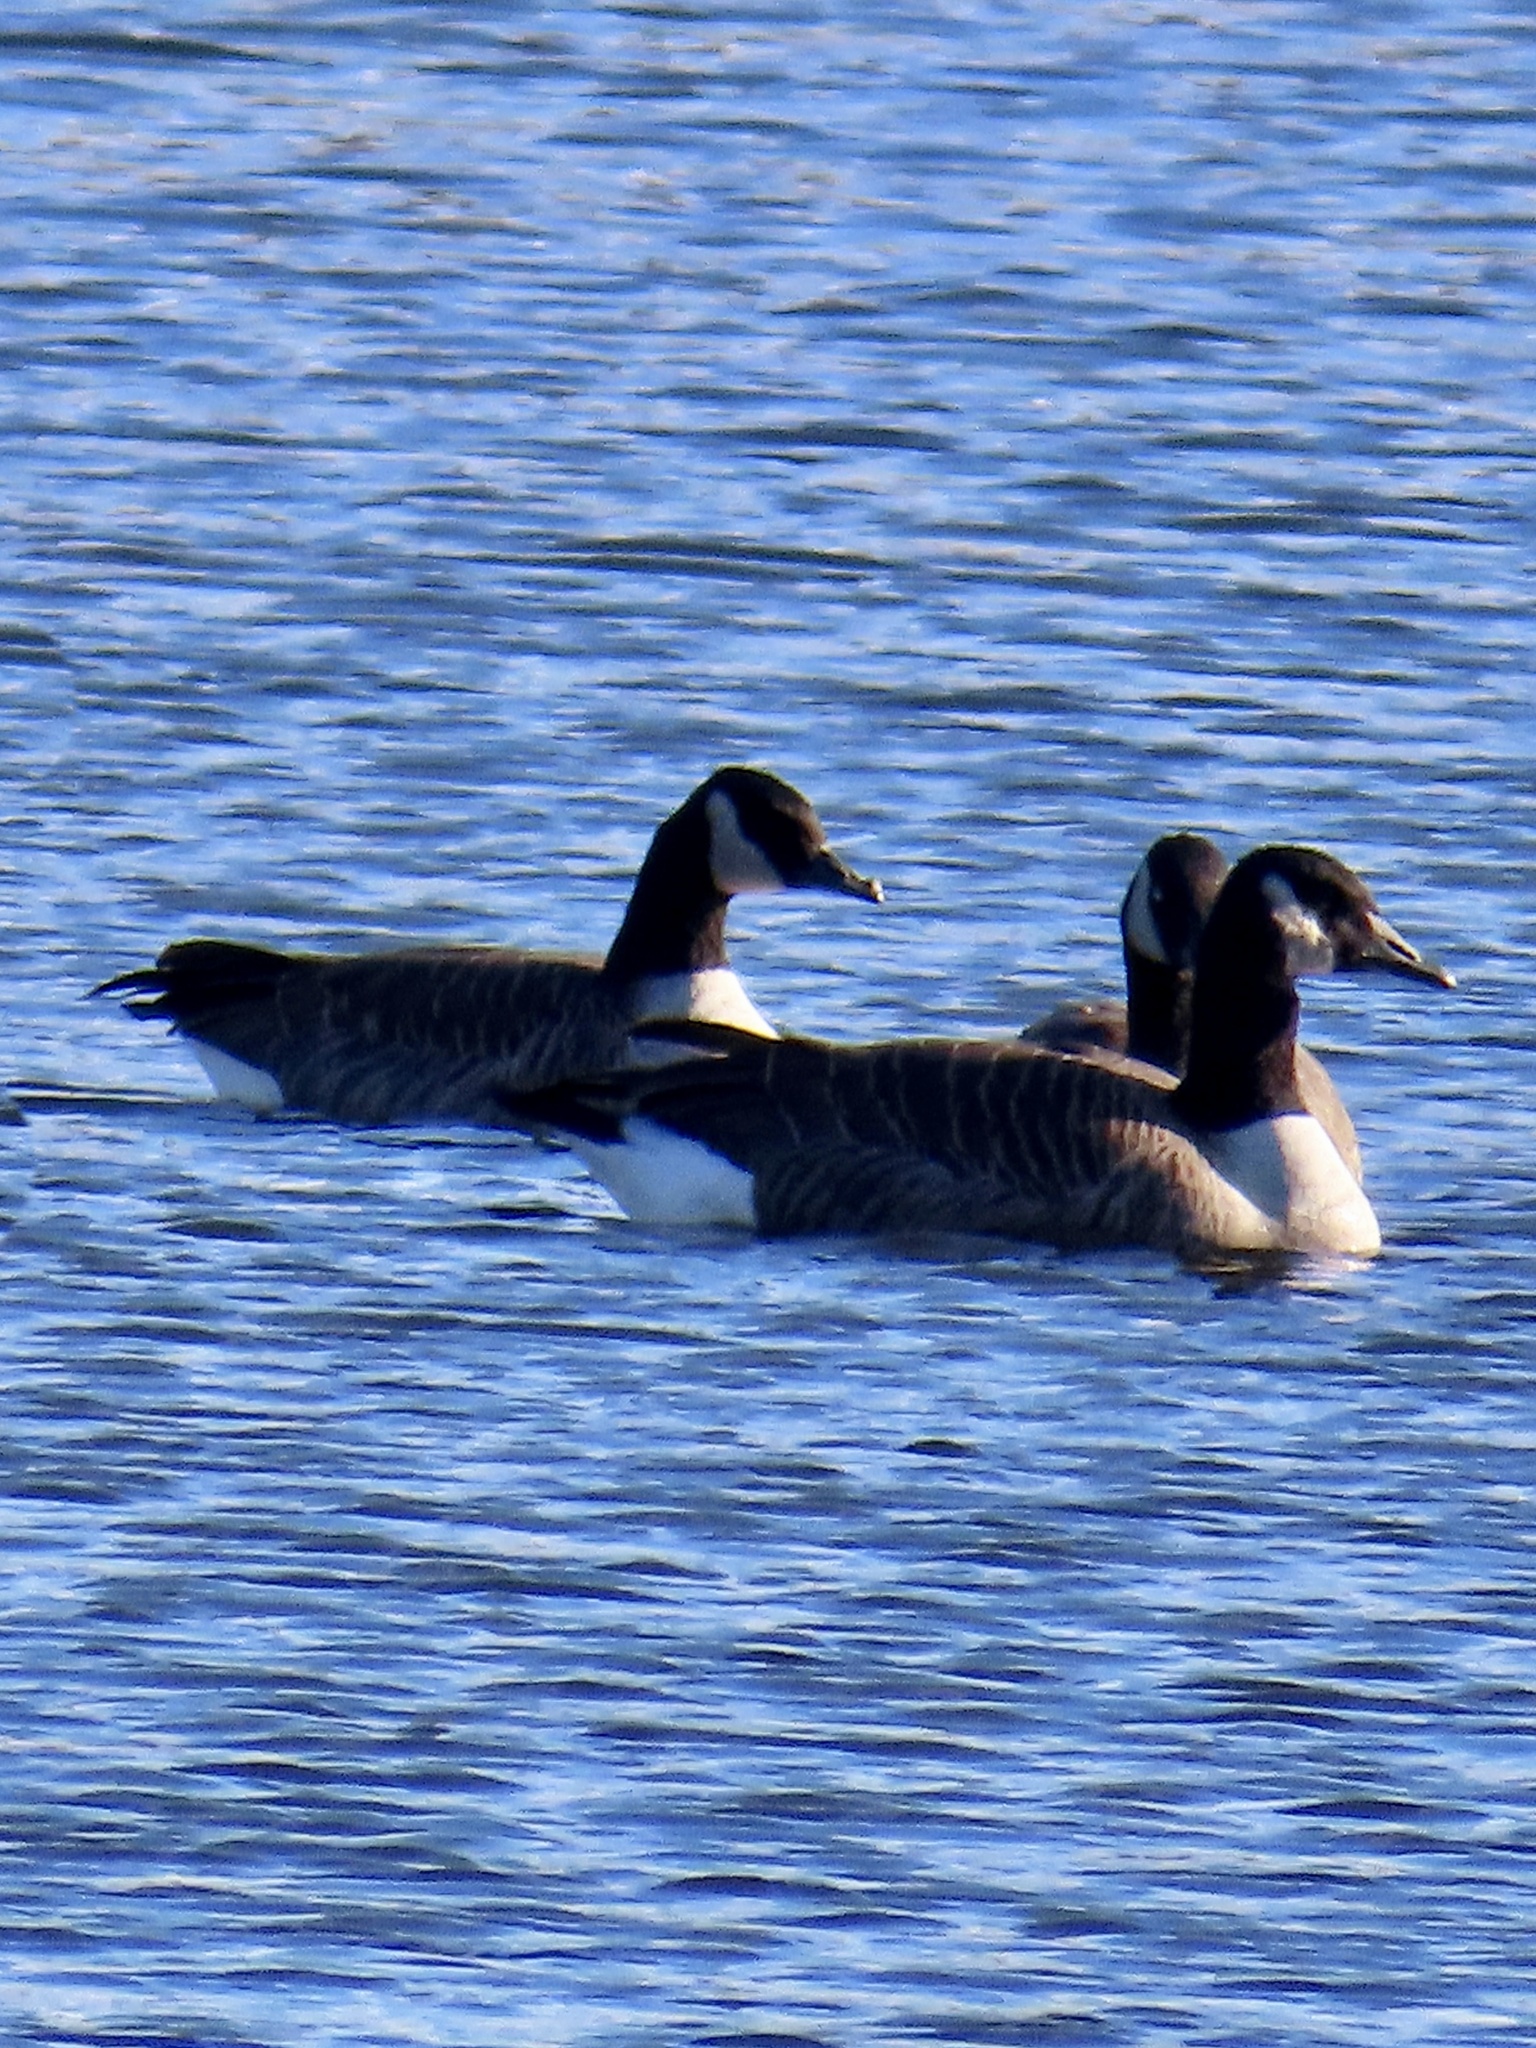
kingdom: Animalia
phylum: Chordata
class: Aves
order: Anseriformes
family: Anatidae
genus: Branta
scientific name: Branta canadensis
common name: Canada goose
